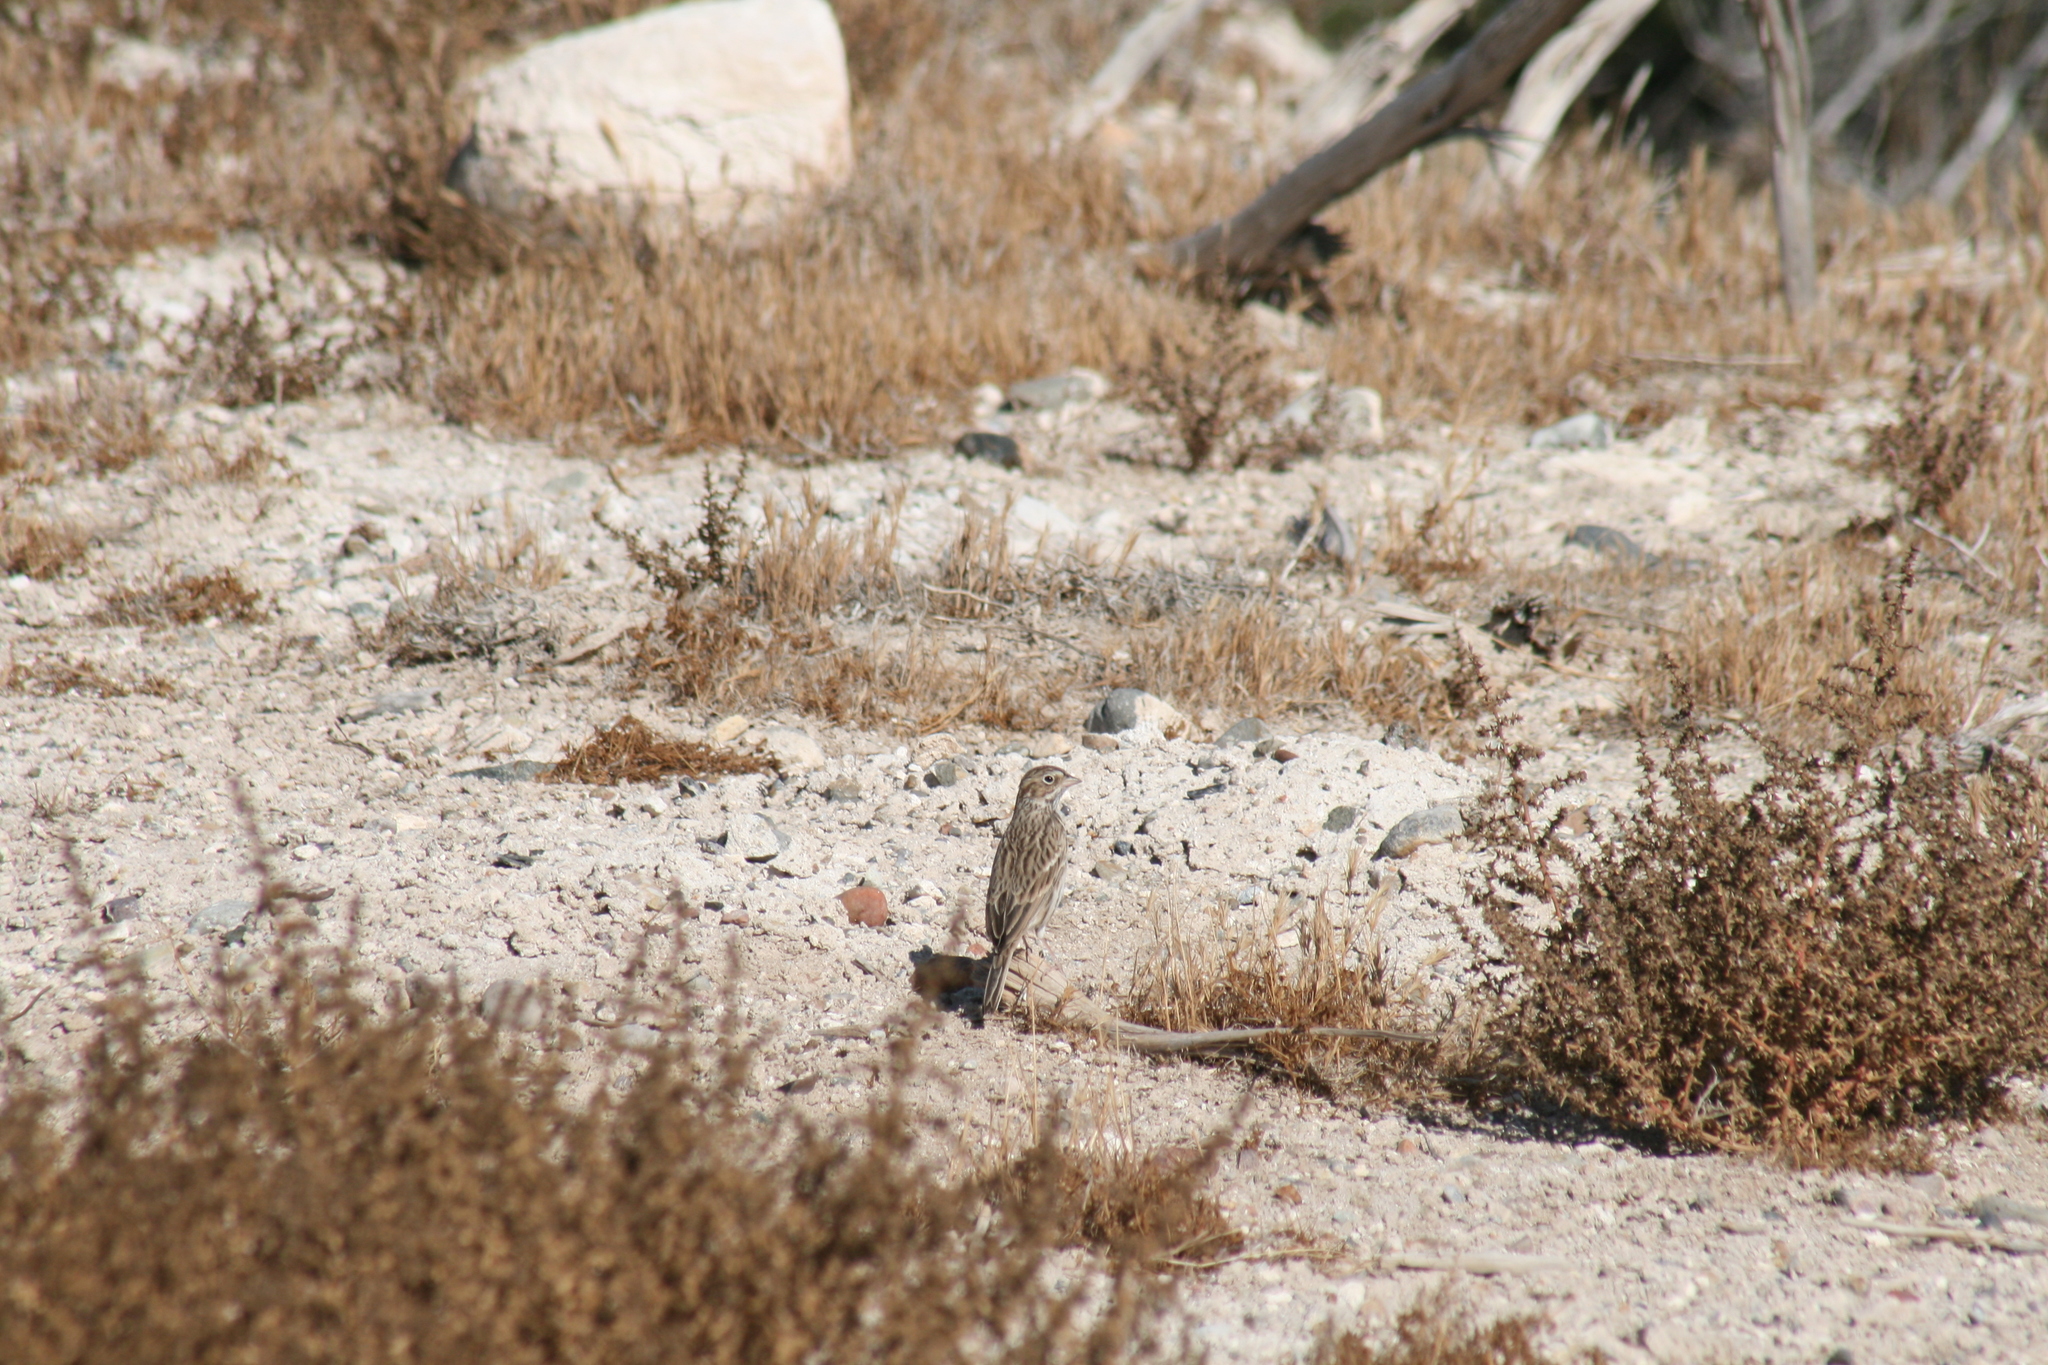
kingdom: Animalia
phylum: Chordata
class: Aves
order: Passeriformes
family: Passerellidae
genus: Pooecetes
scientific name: Pooecetes gramineus
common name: Vesper sparrow
